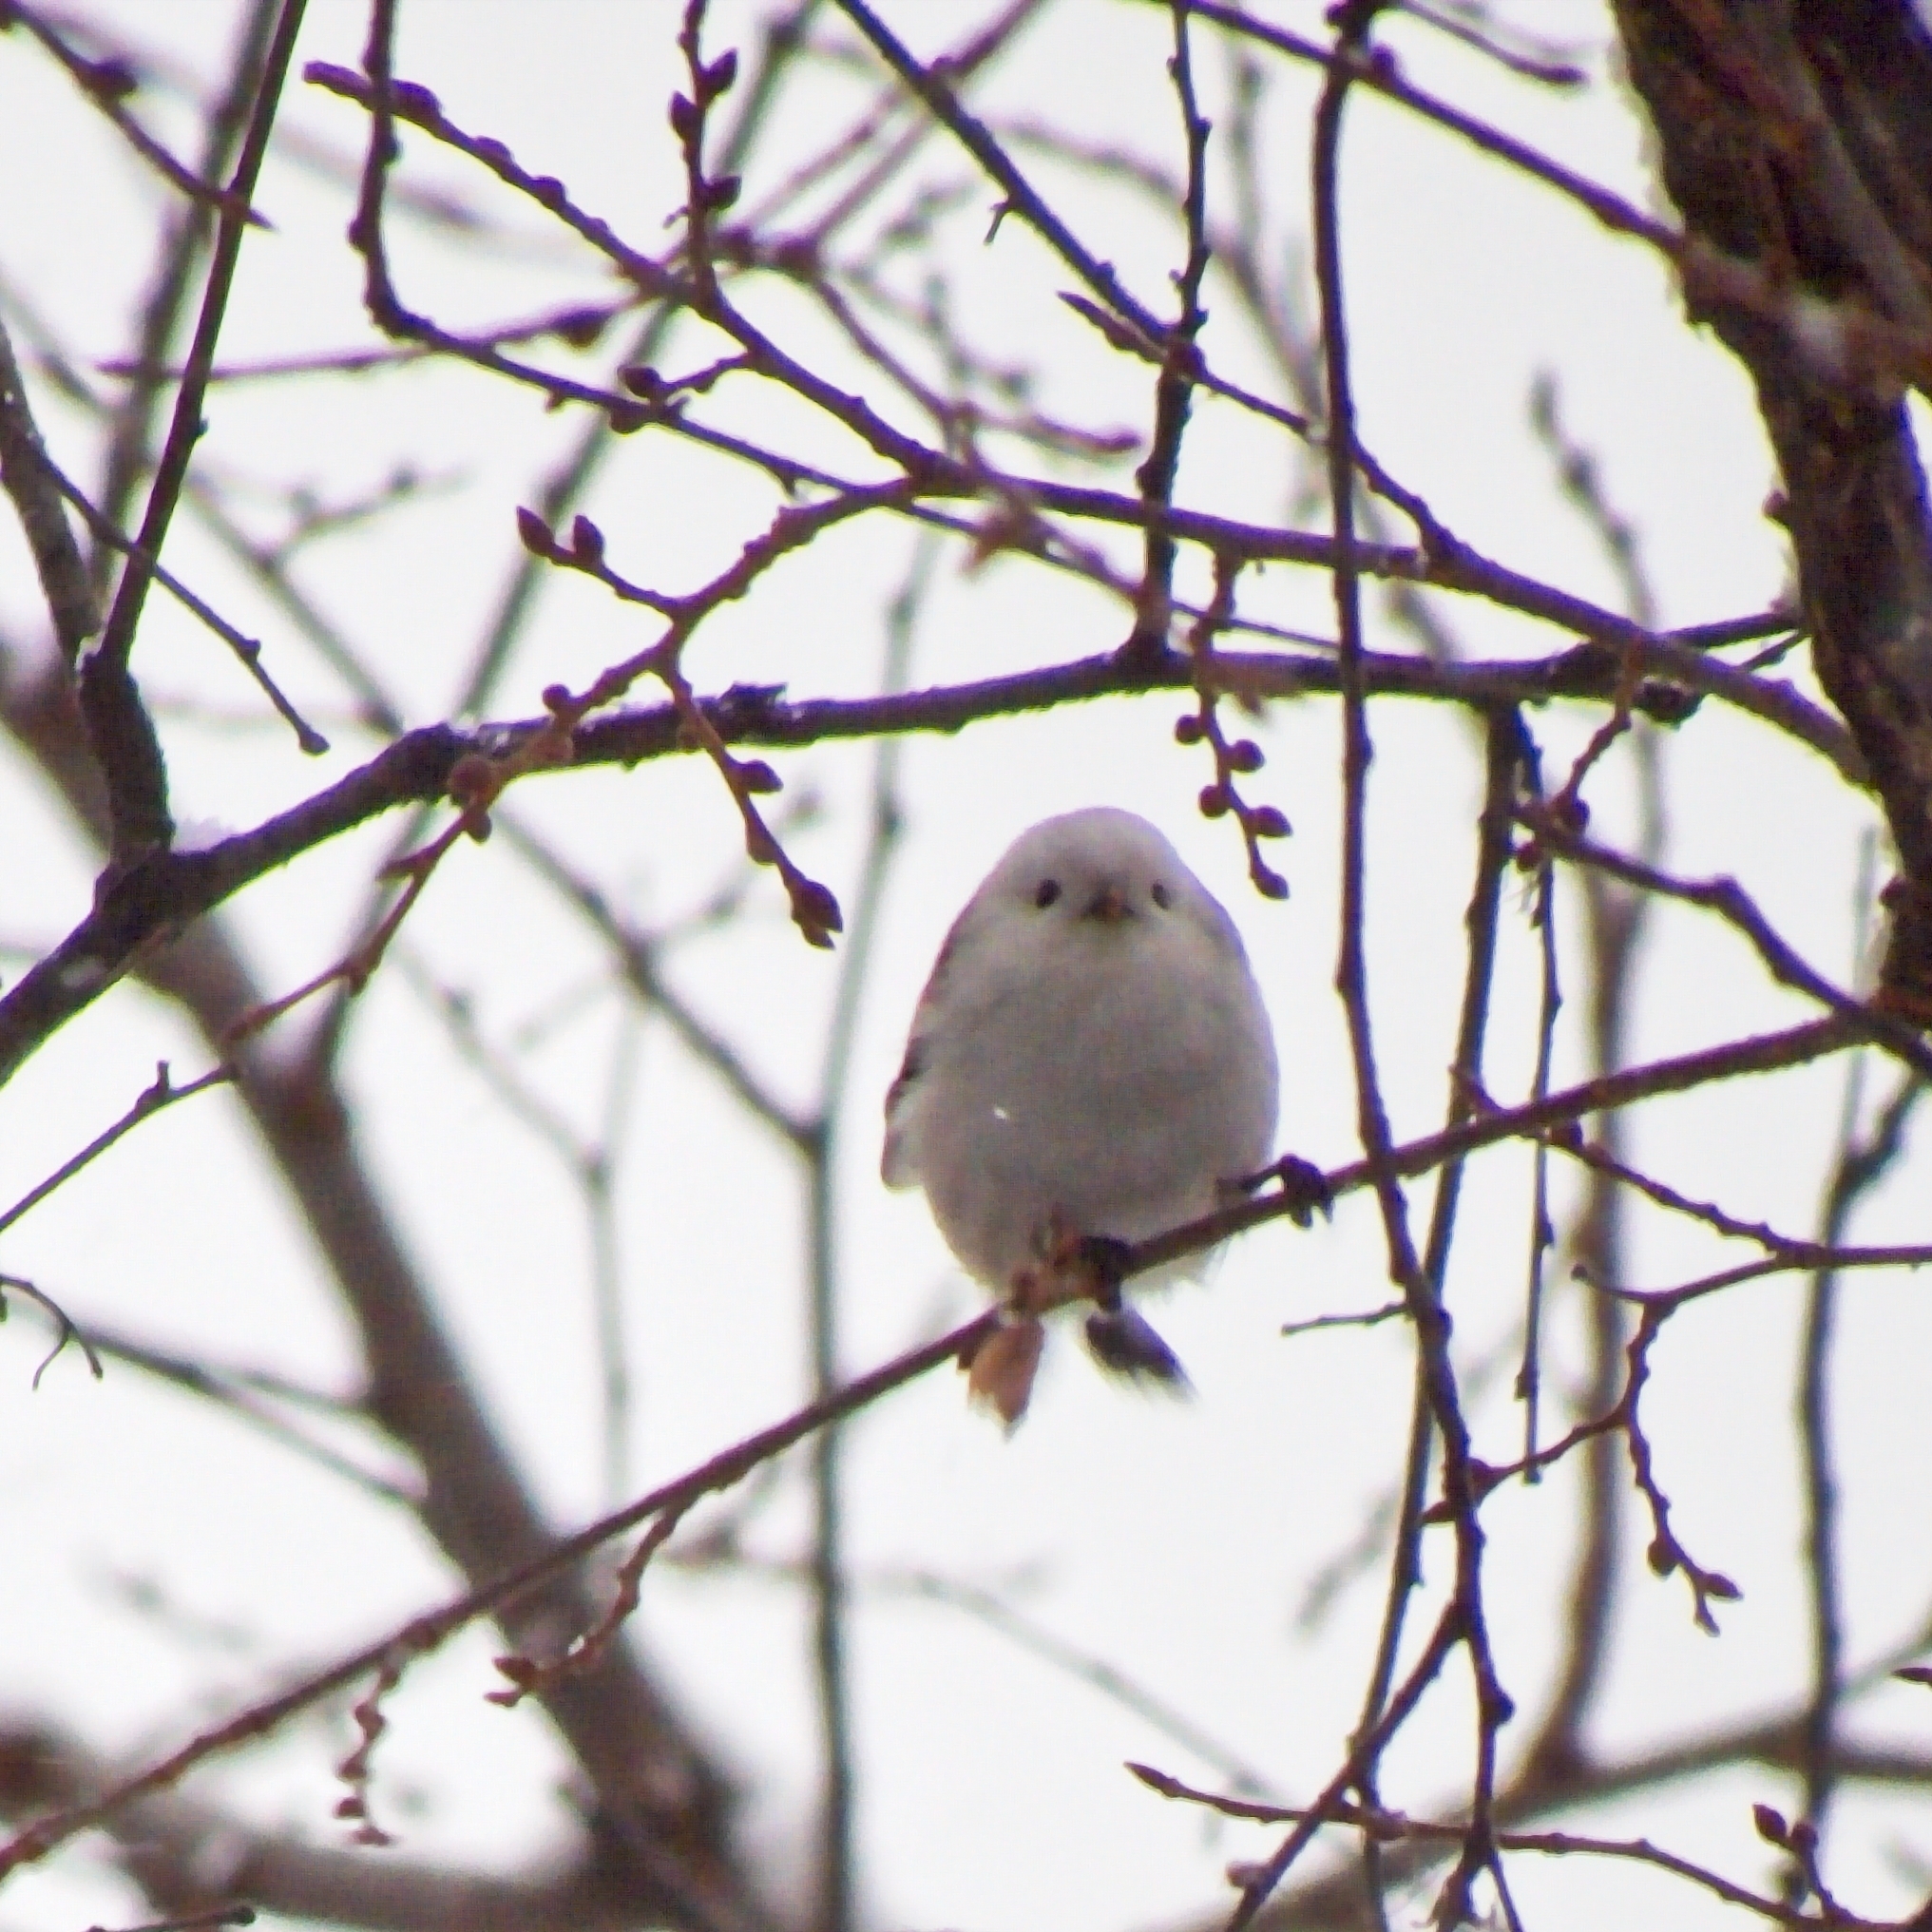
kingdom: Animalia
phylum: Chordata
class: Aves
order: Passeriformes
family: Aegithalidae
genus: Aegithalos
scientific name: Aegithalos caudatus
